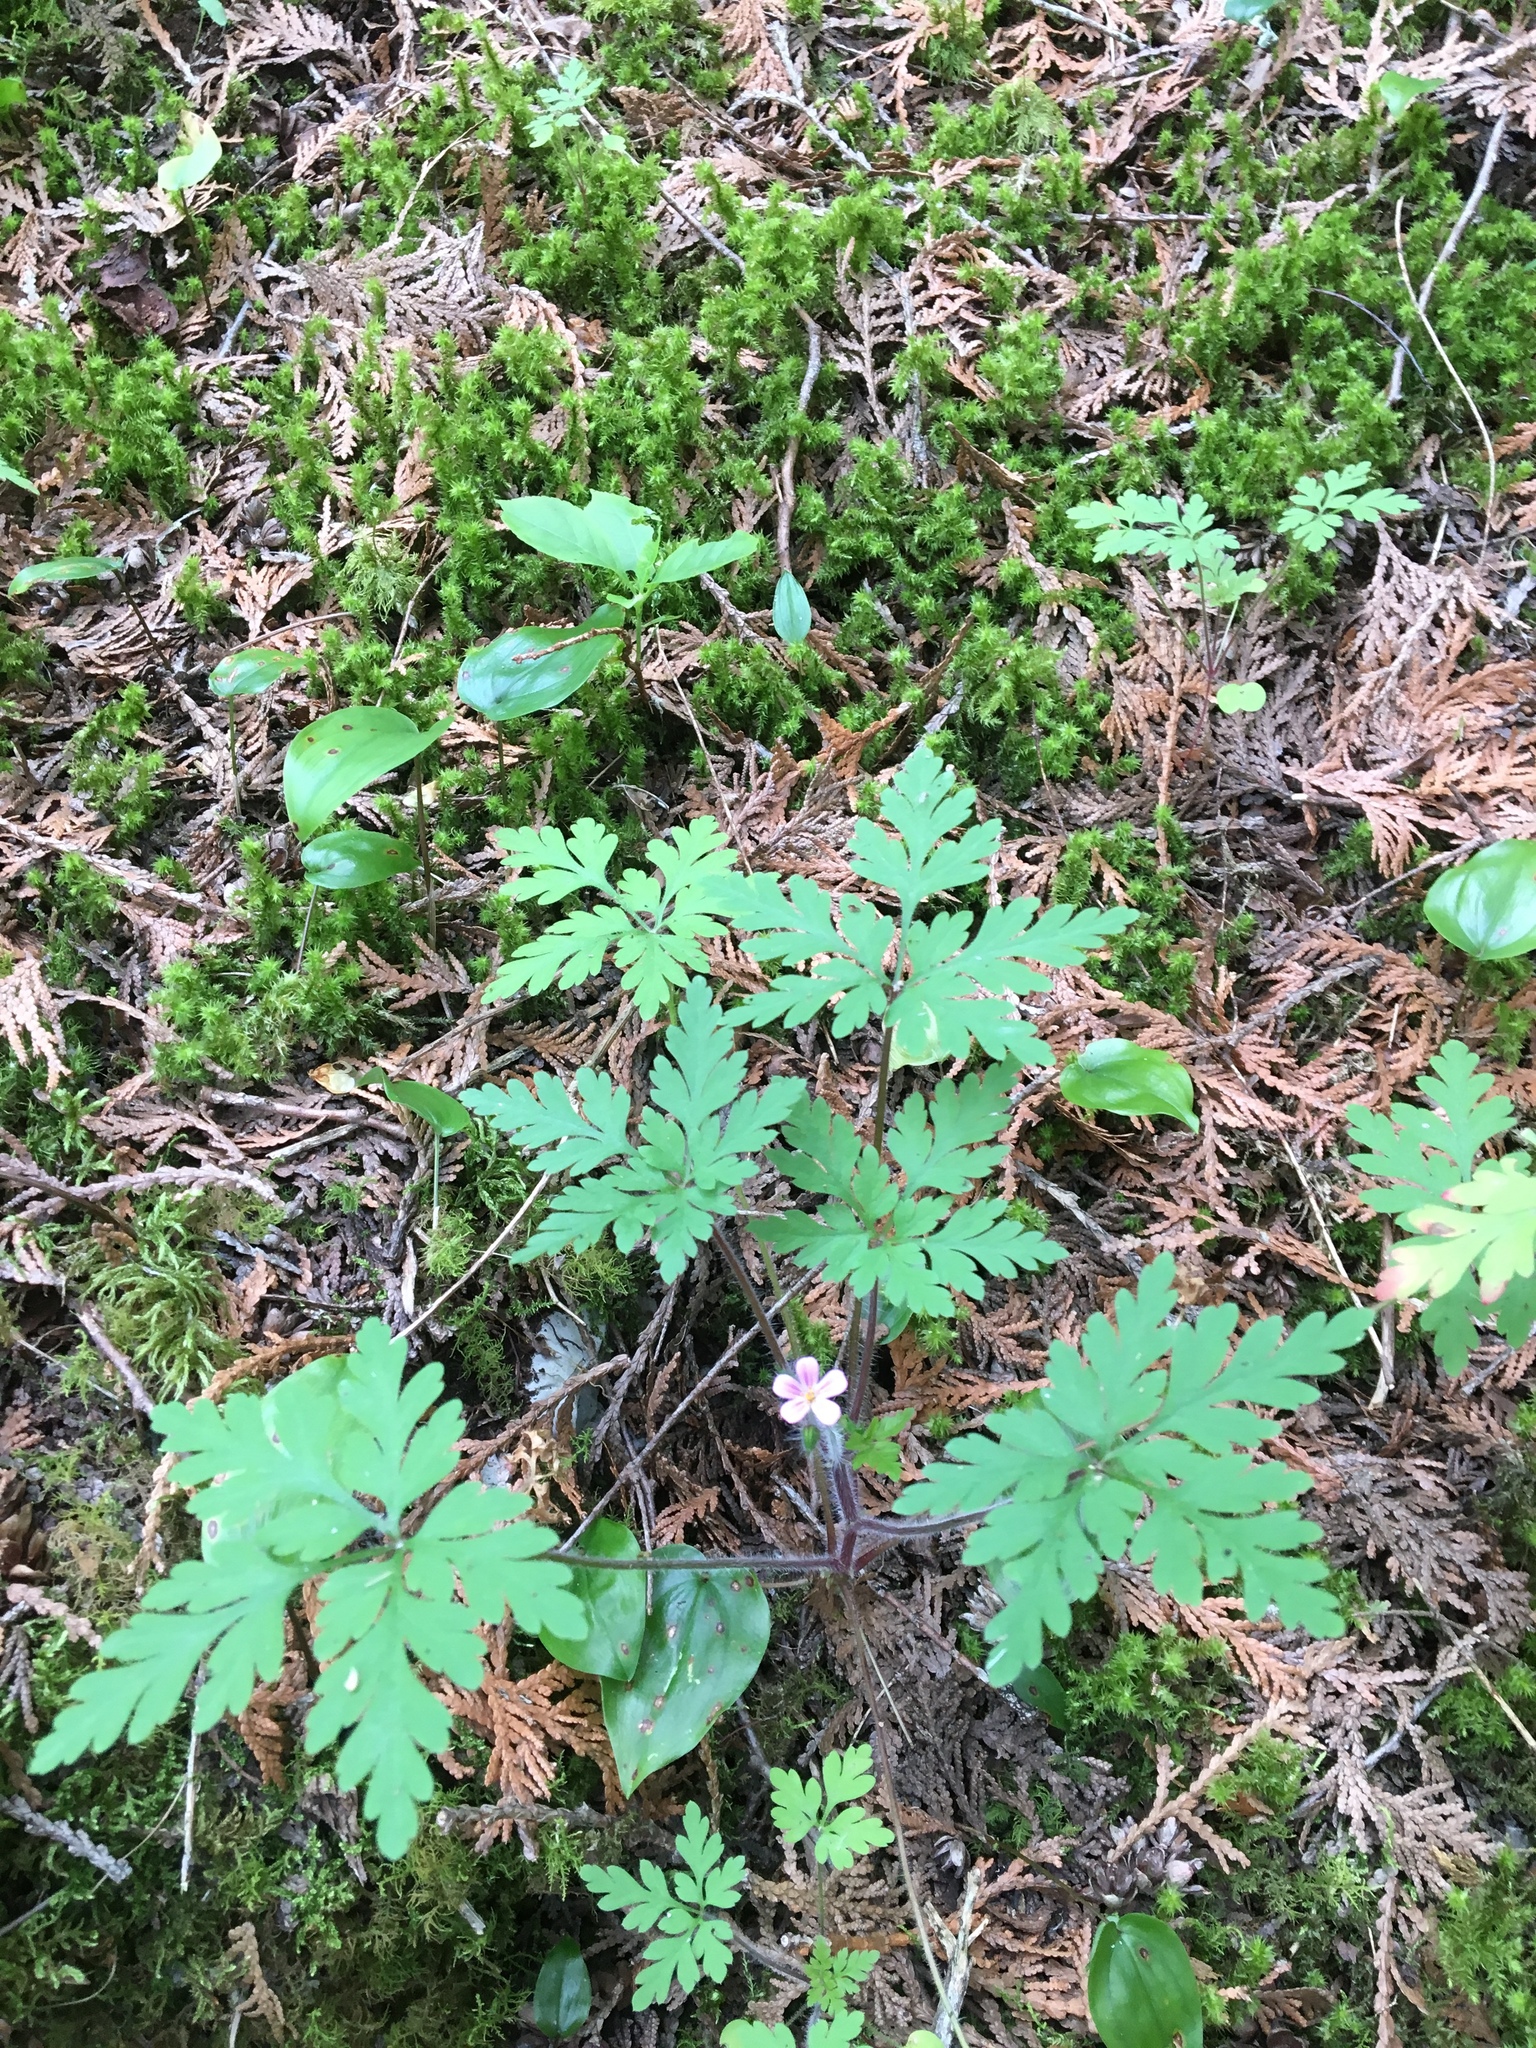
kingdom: Plantae
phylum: Tracheophyta
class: Magnoliopsida
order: Geraniales
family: Geraniaceae
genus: Geranium
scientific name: Geranium robertianum
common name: Herb-robert
